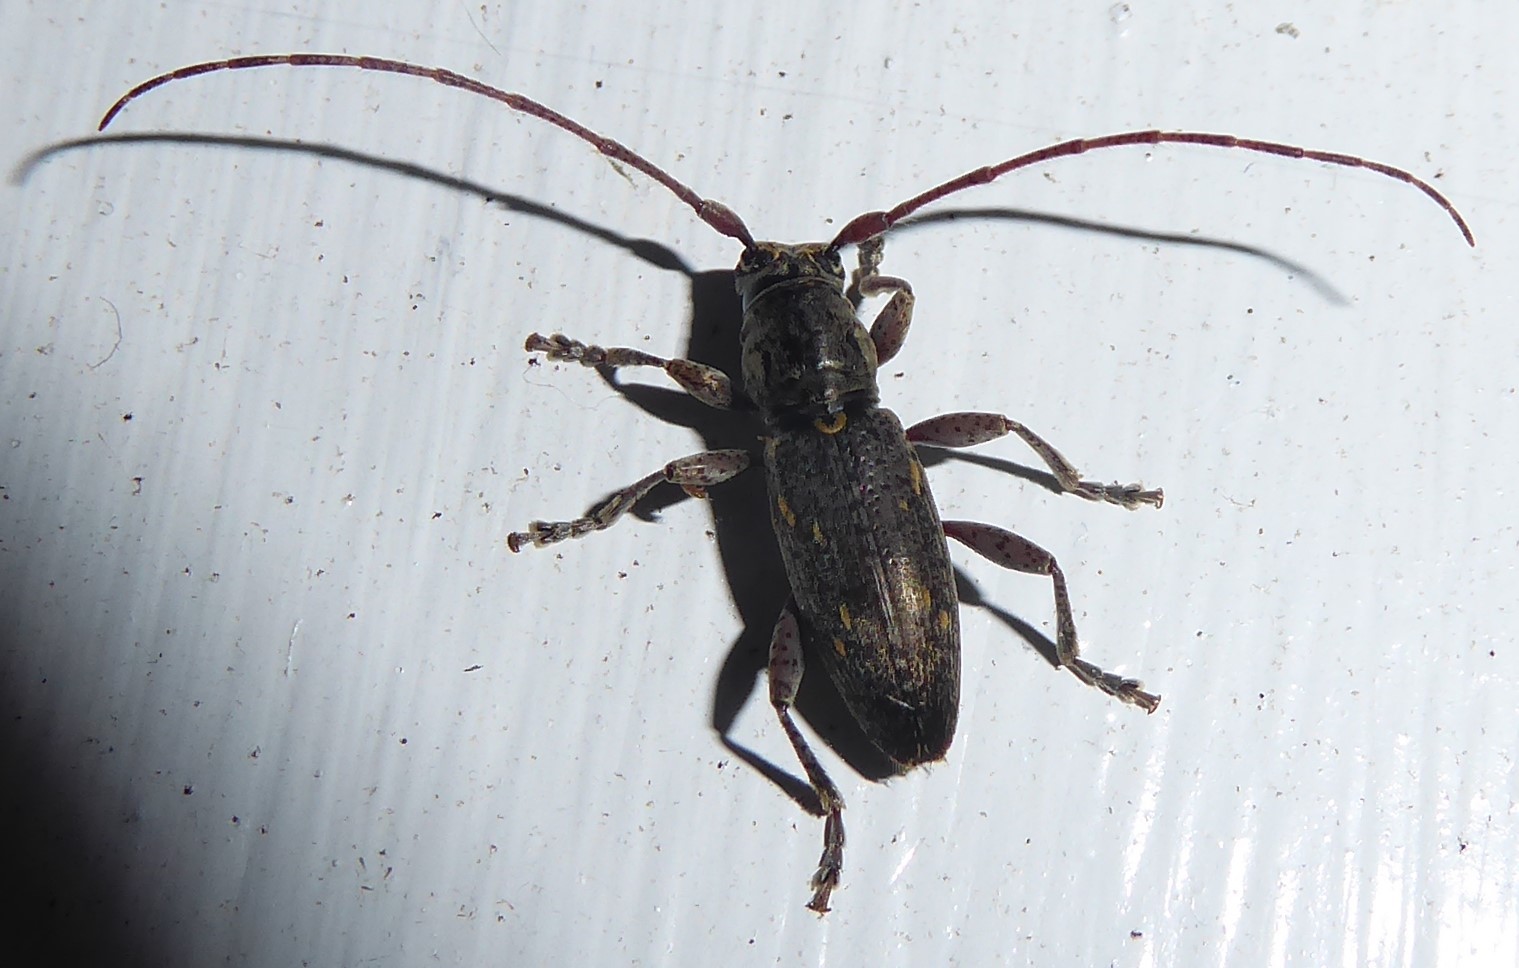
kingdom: Animalia
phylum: Arthropoda
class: Insecta
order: Coleoptera
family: Cerambycidae
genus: Xylotoles
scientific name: Xylotoles griseus
